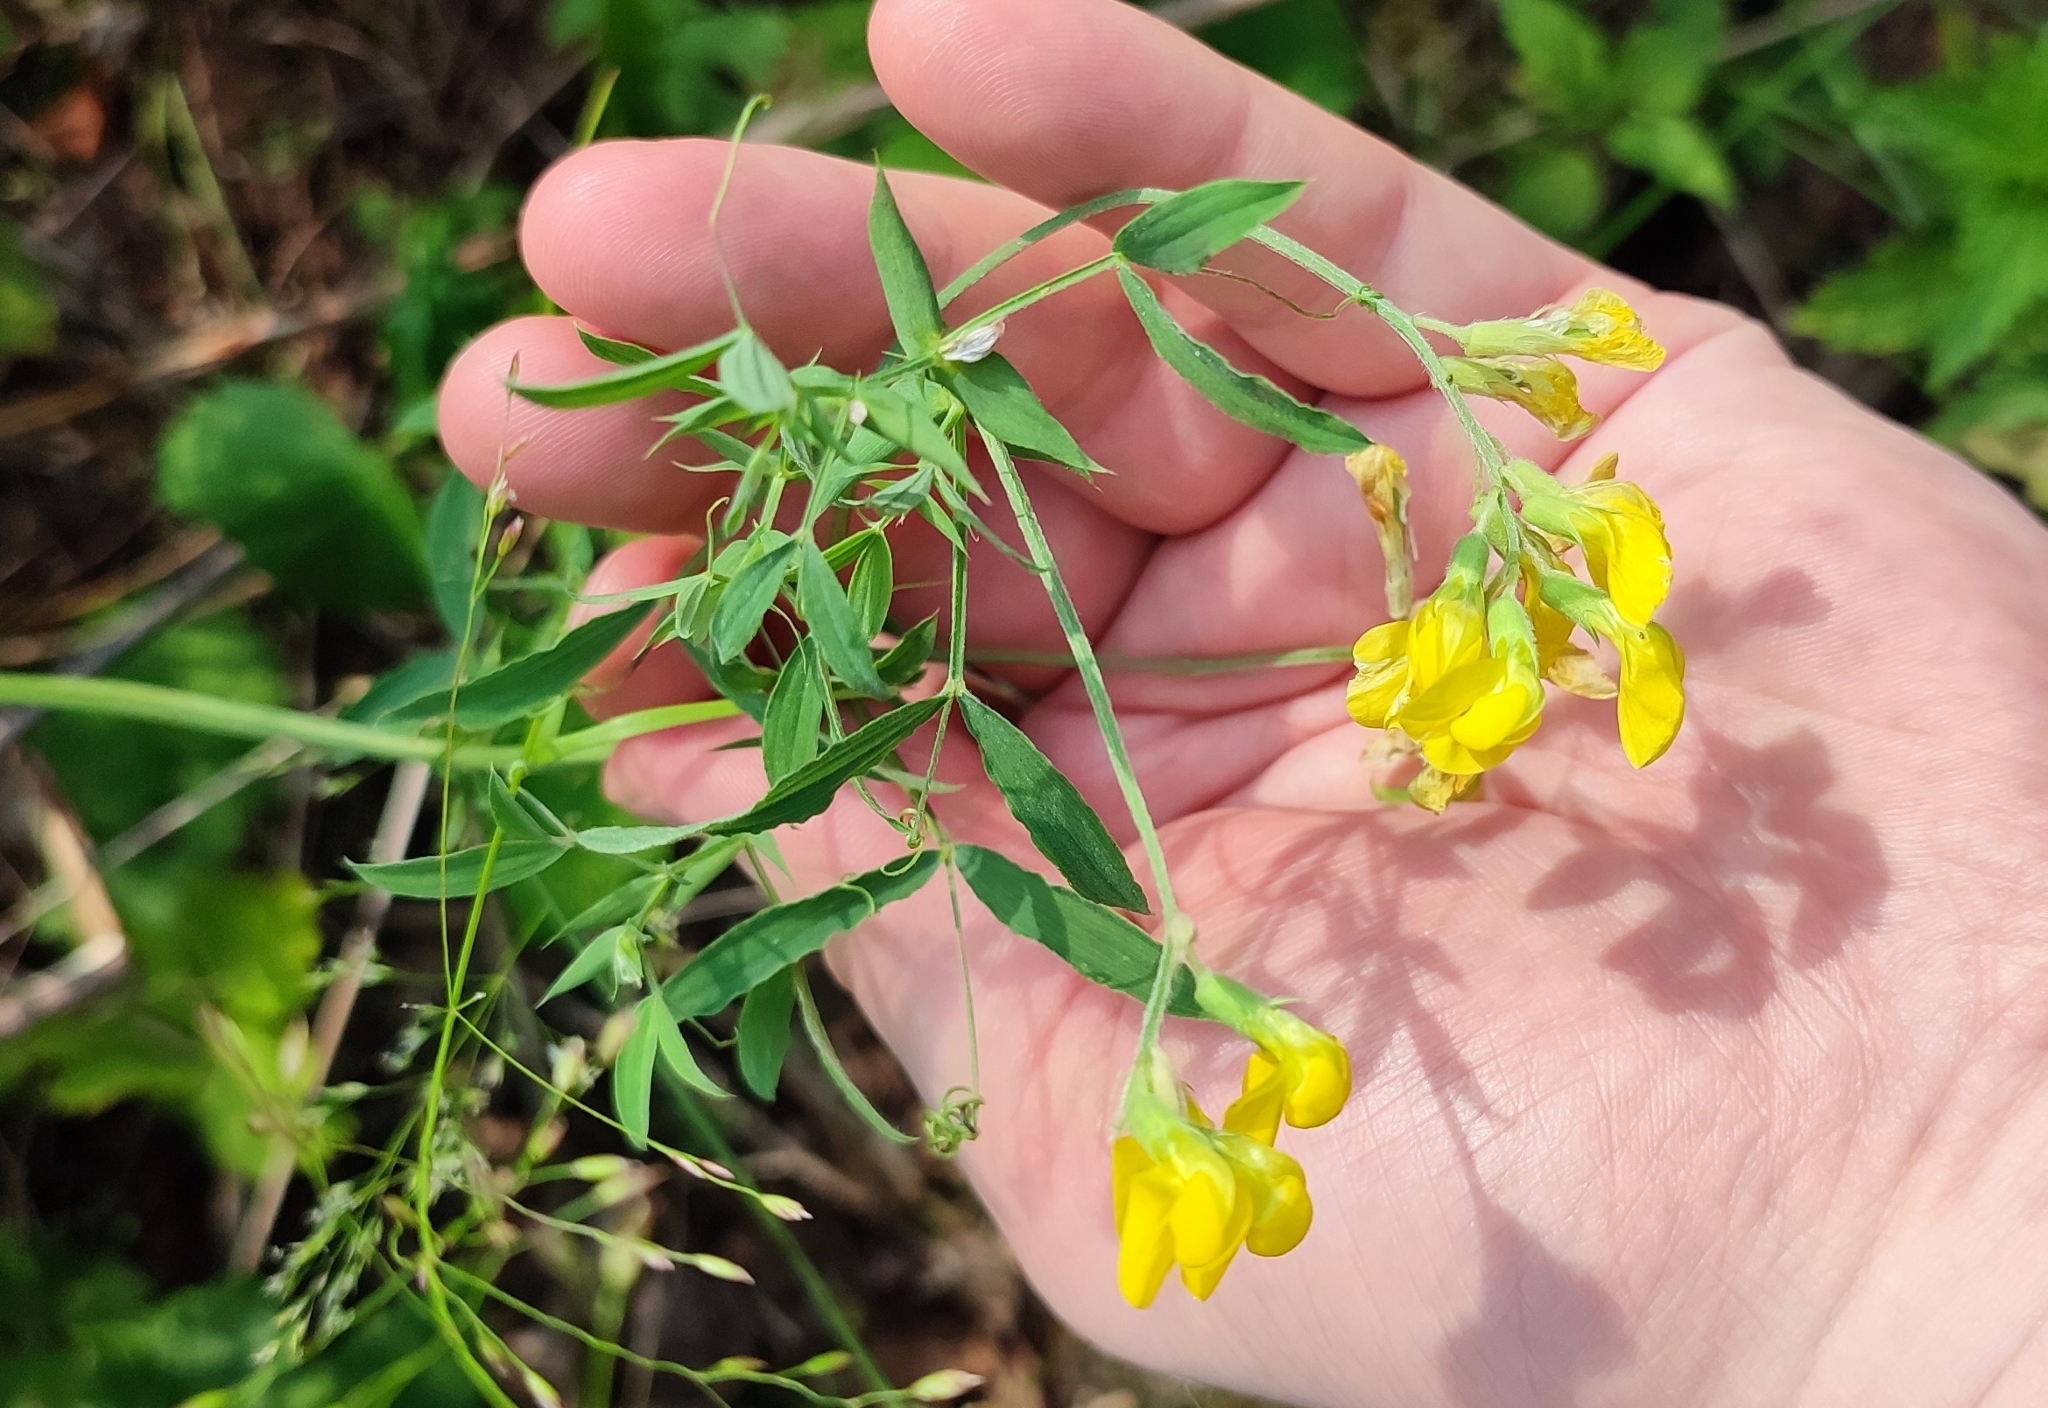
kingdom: Plantae
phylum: Tracheophyta
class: Magnoliopsida
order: Fabales
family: Fabaceae
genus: Lathyrus
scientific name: Lathyrus pratensis
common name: Meadow vetchling
